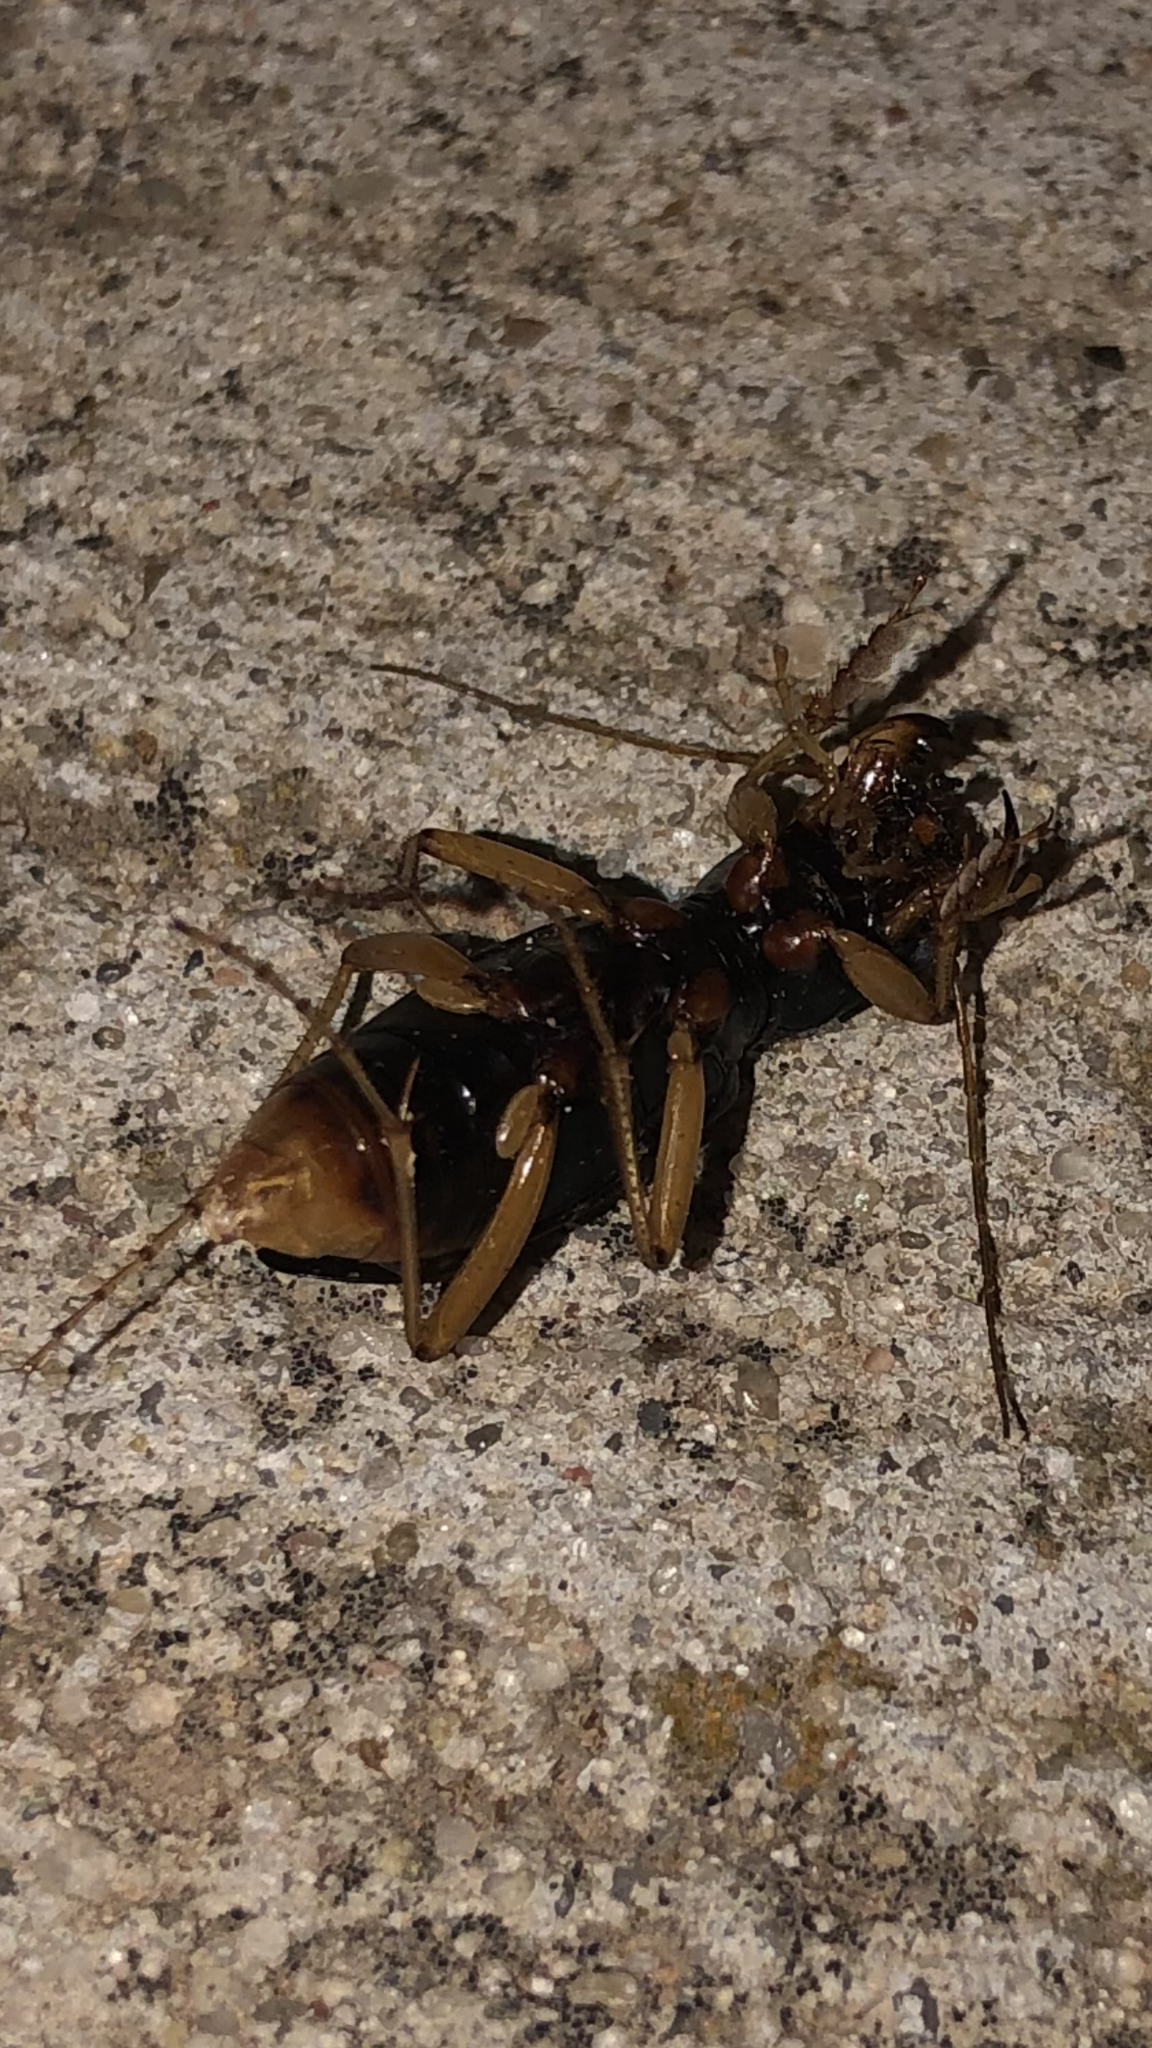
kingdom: Animalia
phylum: Arthropoda
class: Insecta
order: Coleoptera
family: Carabidae
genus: Tetracha
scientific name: Tetracha virginica
